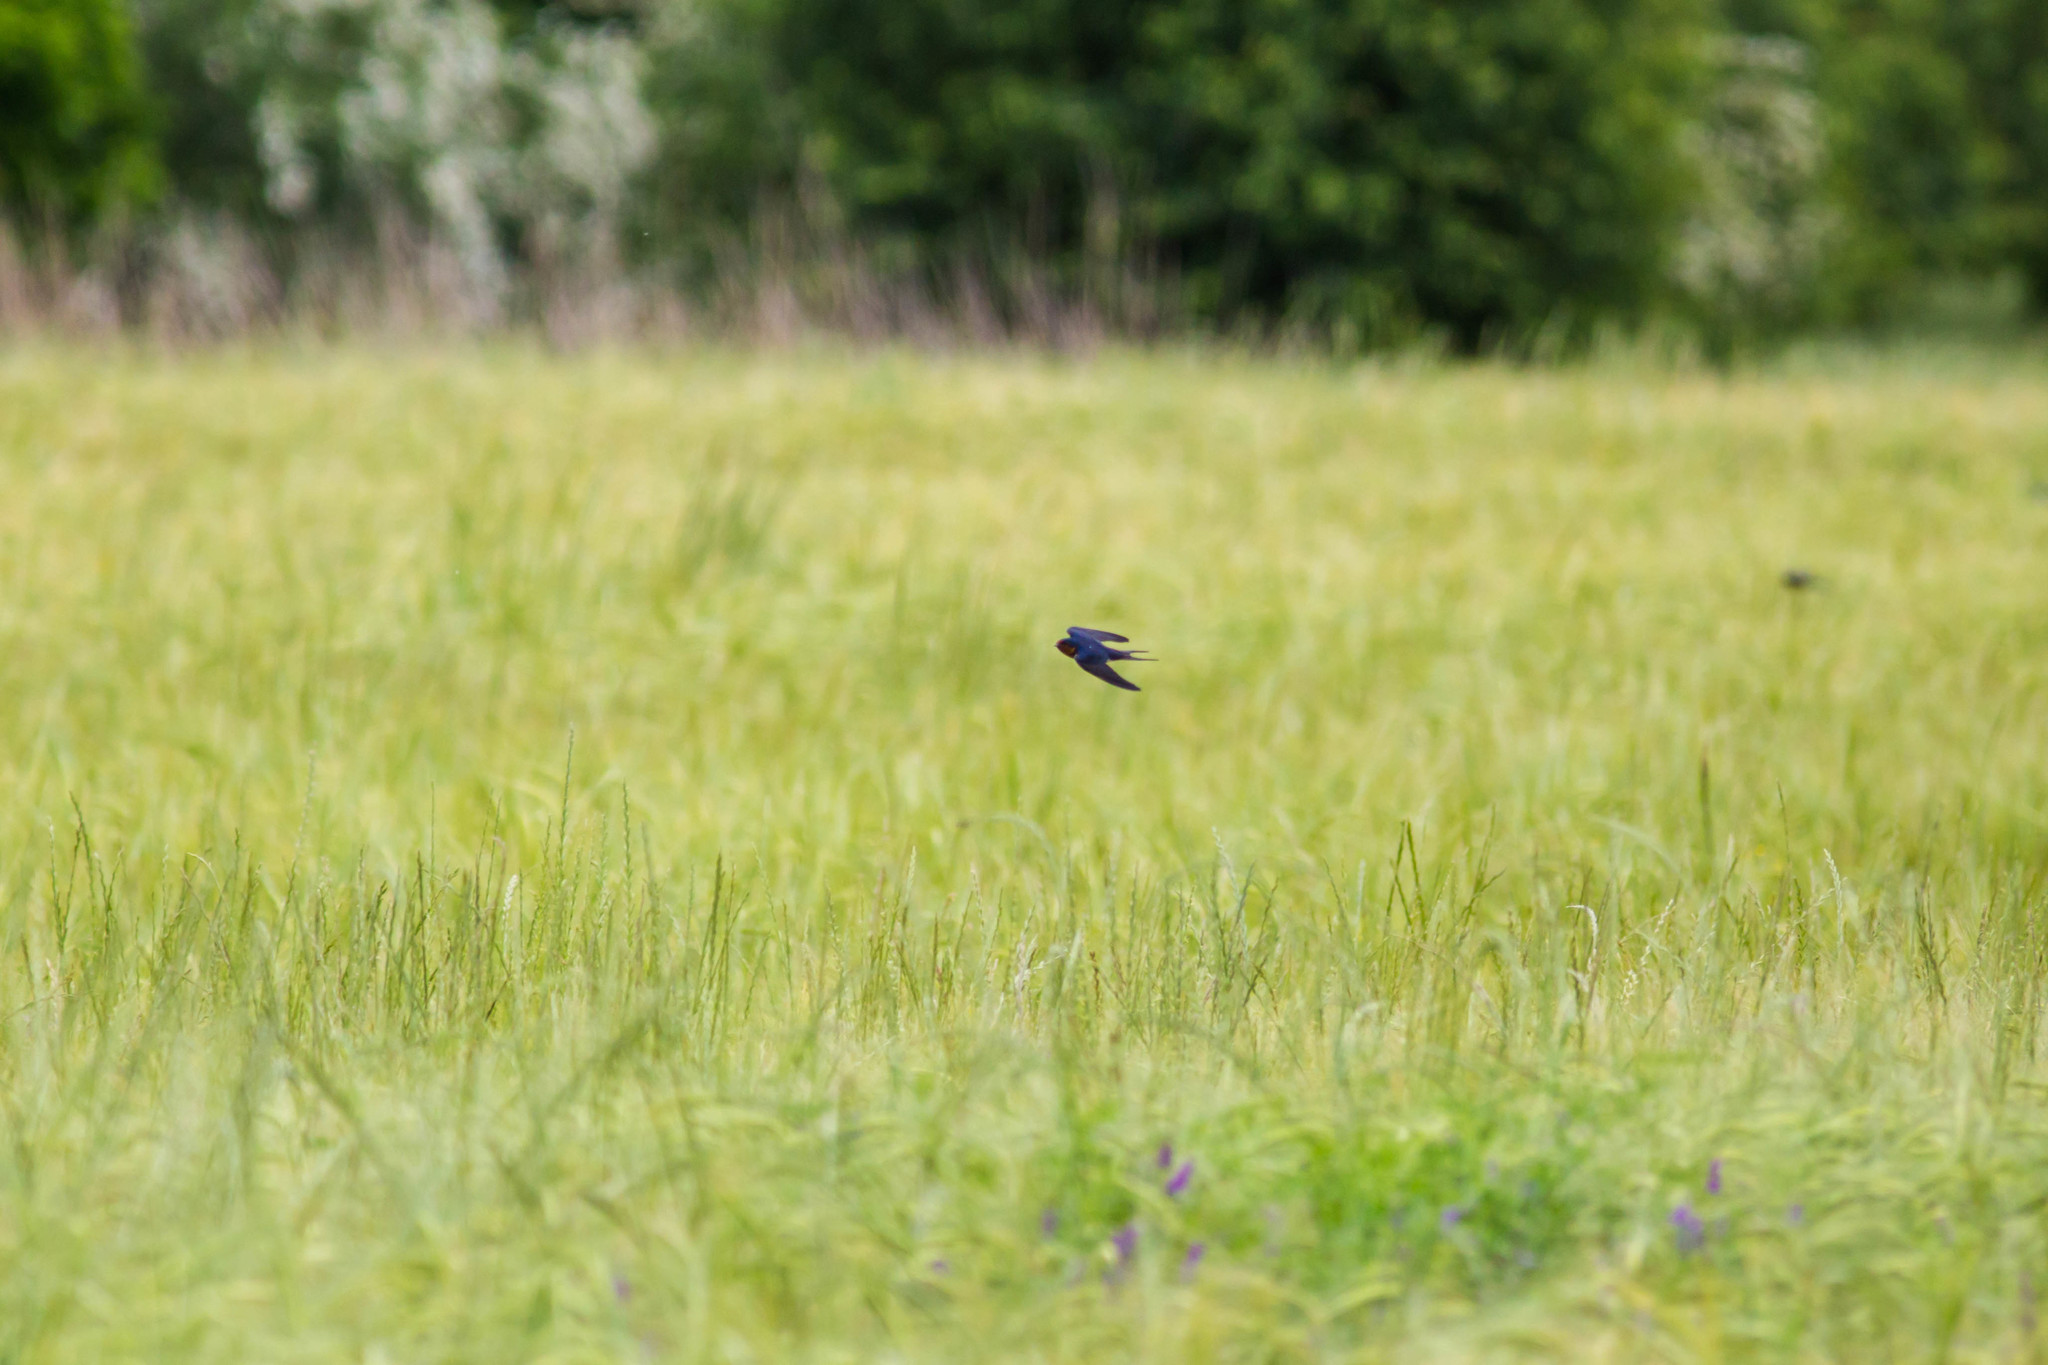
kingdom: Animalia
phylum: Chordata
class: Aves
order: Passeriformes
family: Hirundinidae
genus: Hirundo
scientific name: Hirundo rustica
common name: Barn swallow
